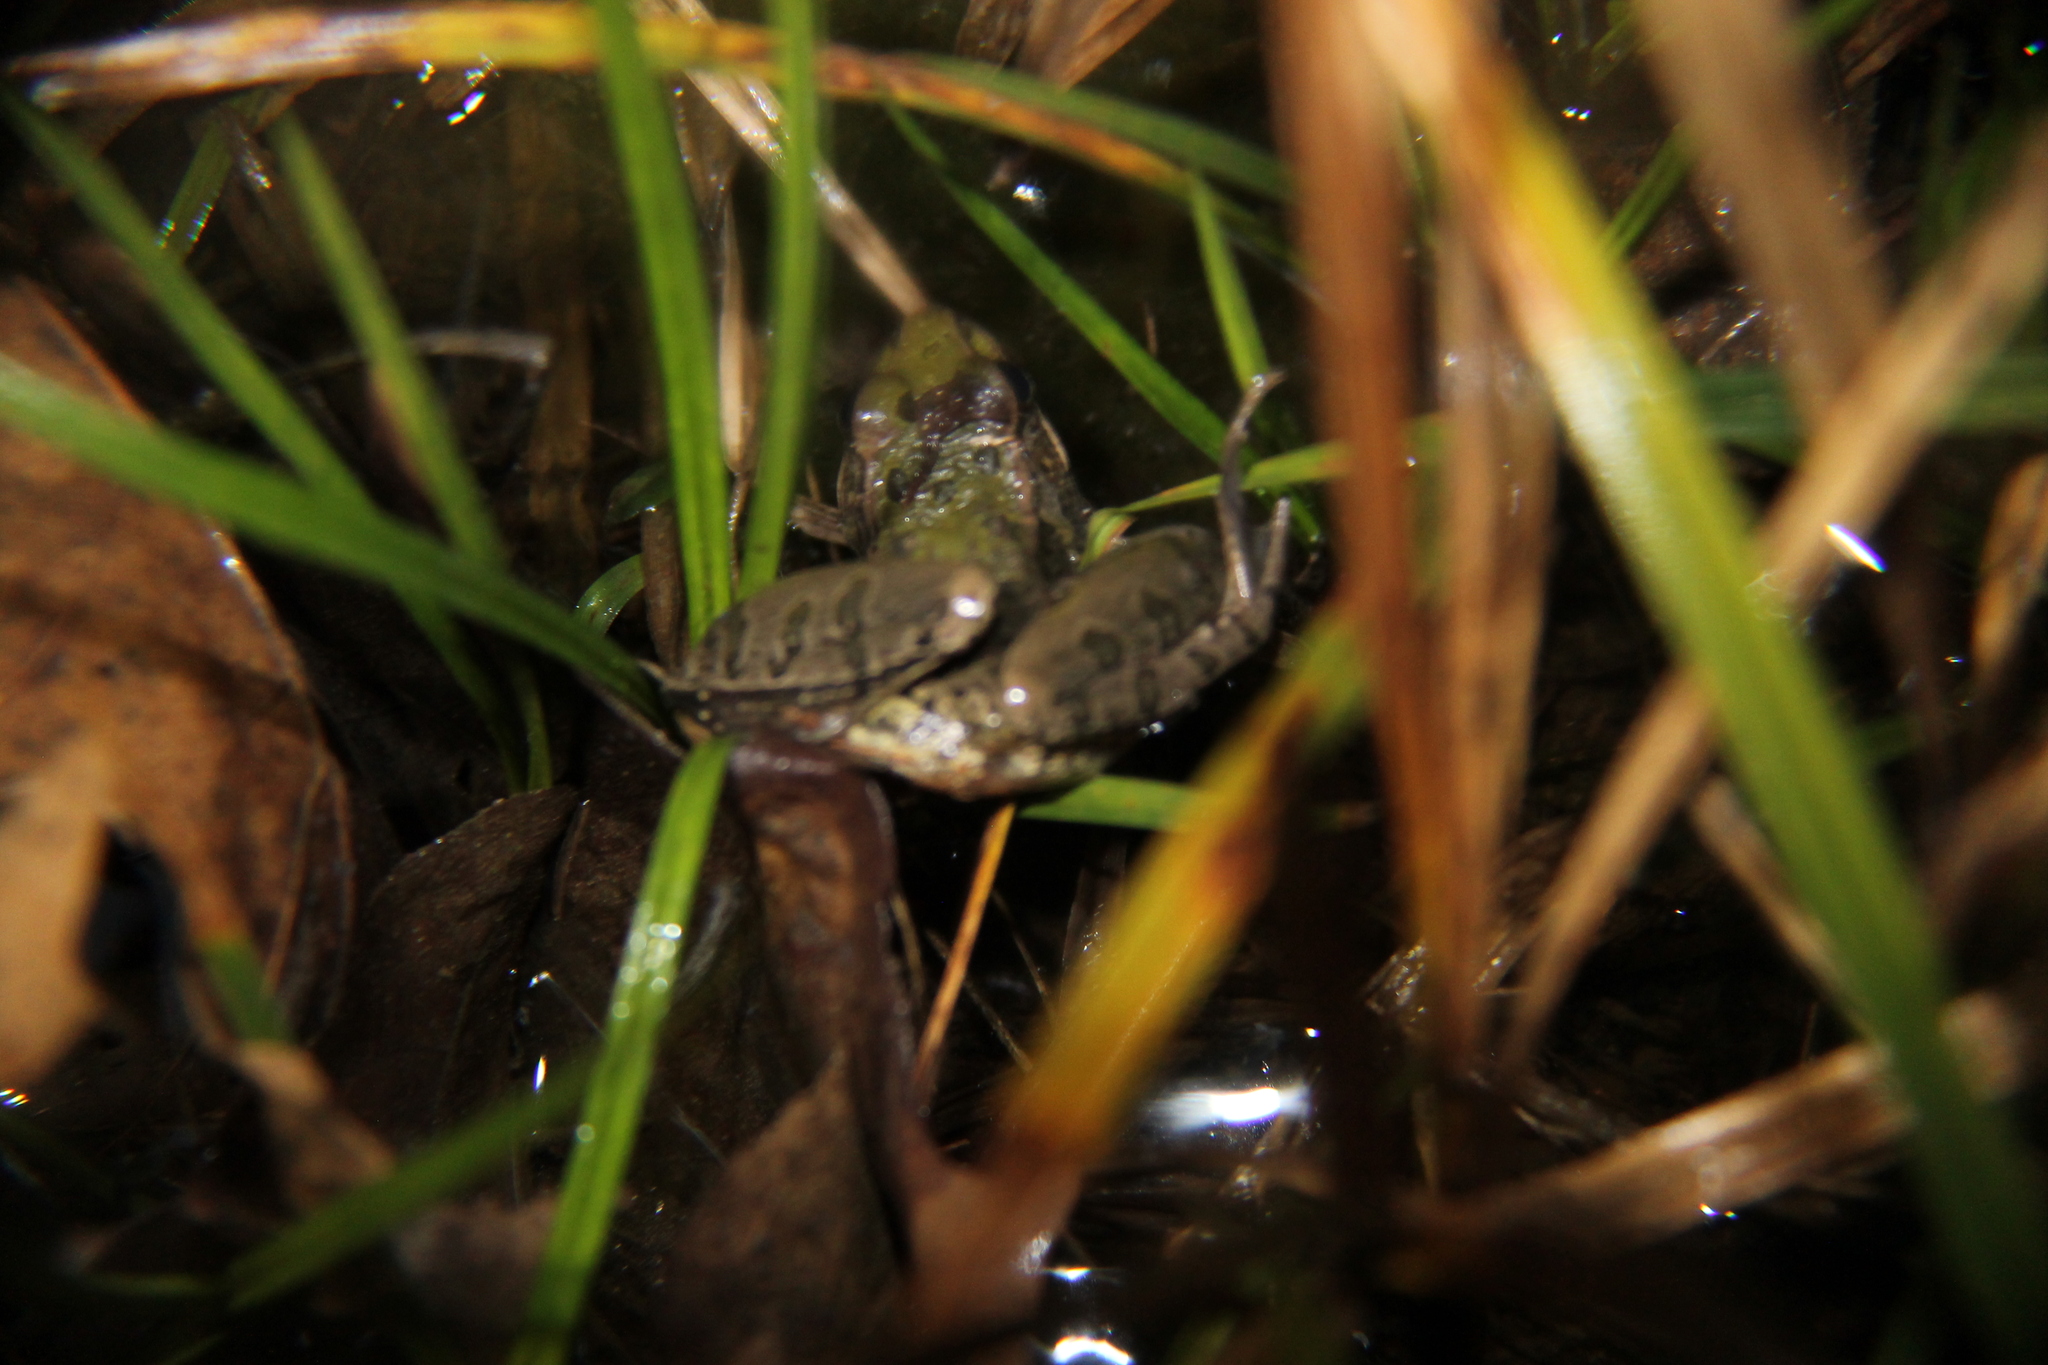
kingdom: Animalia
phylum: Chordata
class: Amphibia
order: Anura
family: Ranidae
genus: Lithobates
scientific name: Lithobates sphenocephalus
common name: Southern leopard frog
